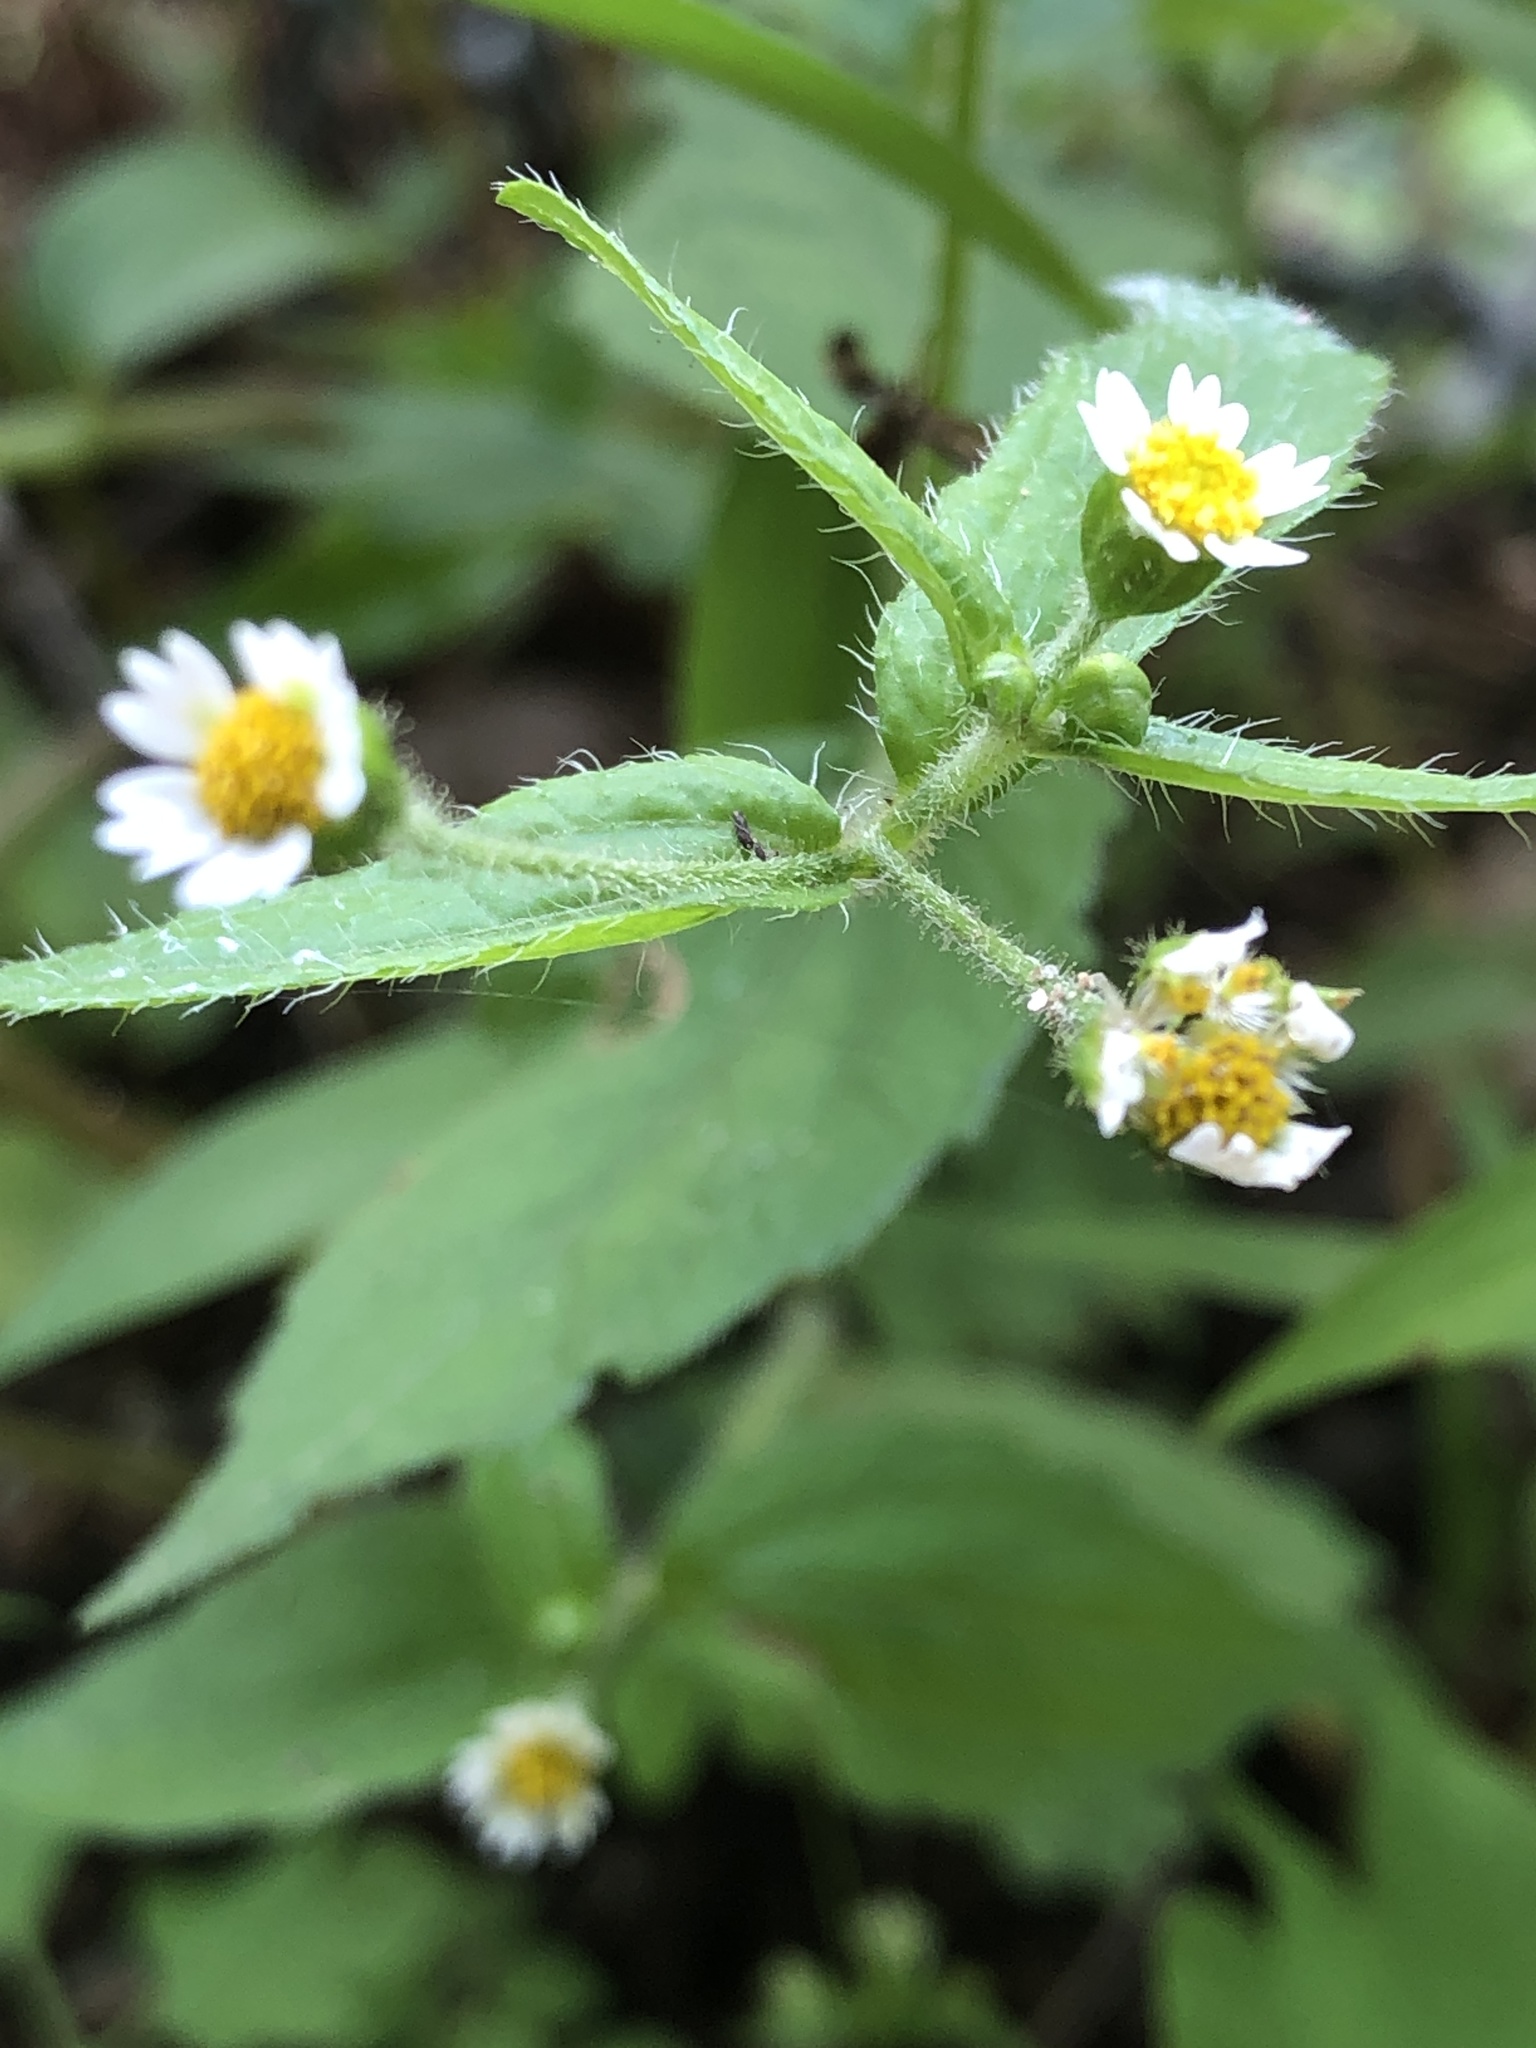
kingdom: Plantae
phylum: Tracheophyta
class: Magnoliopsida
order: Asterales
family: Asteraceae
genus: Galinsoga
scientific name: Galinsoga quadriradiata
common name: Shaggy soldier
